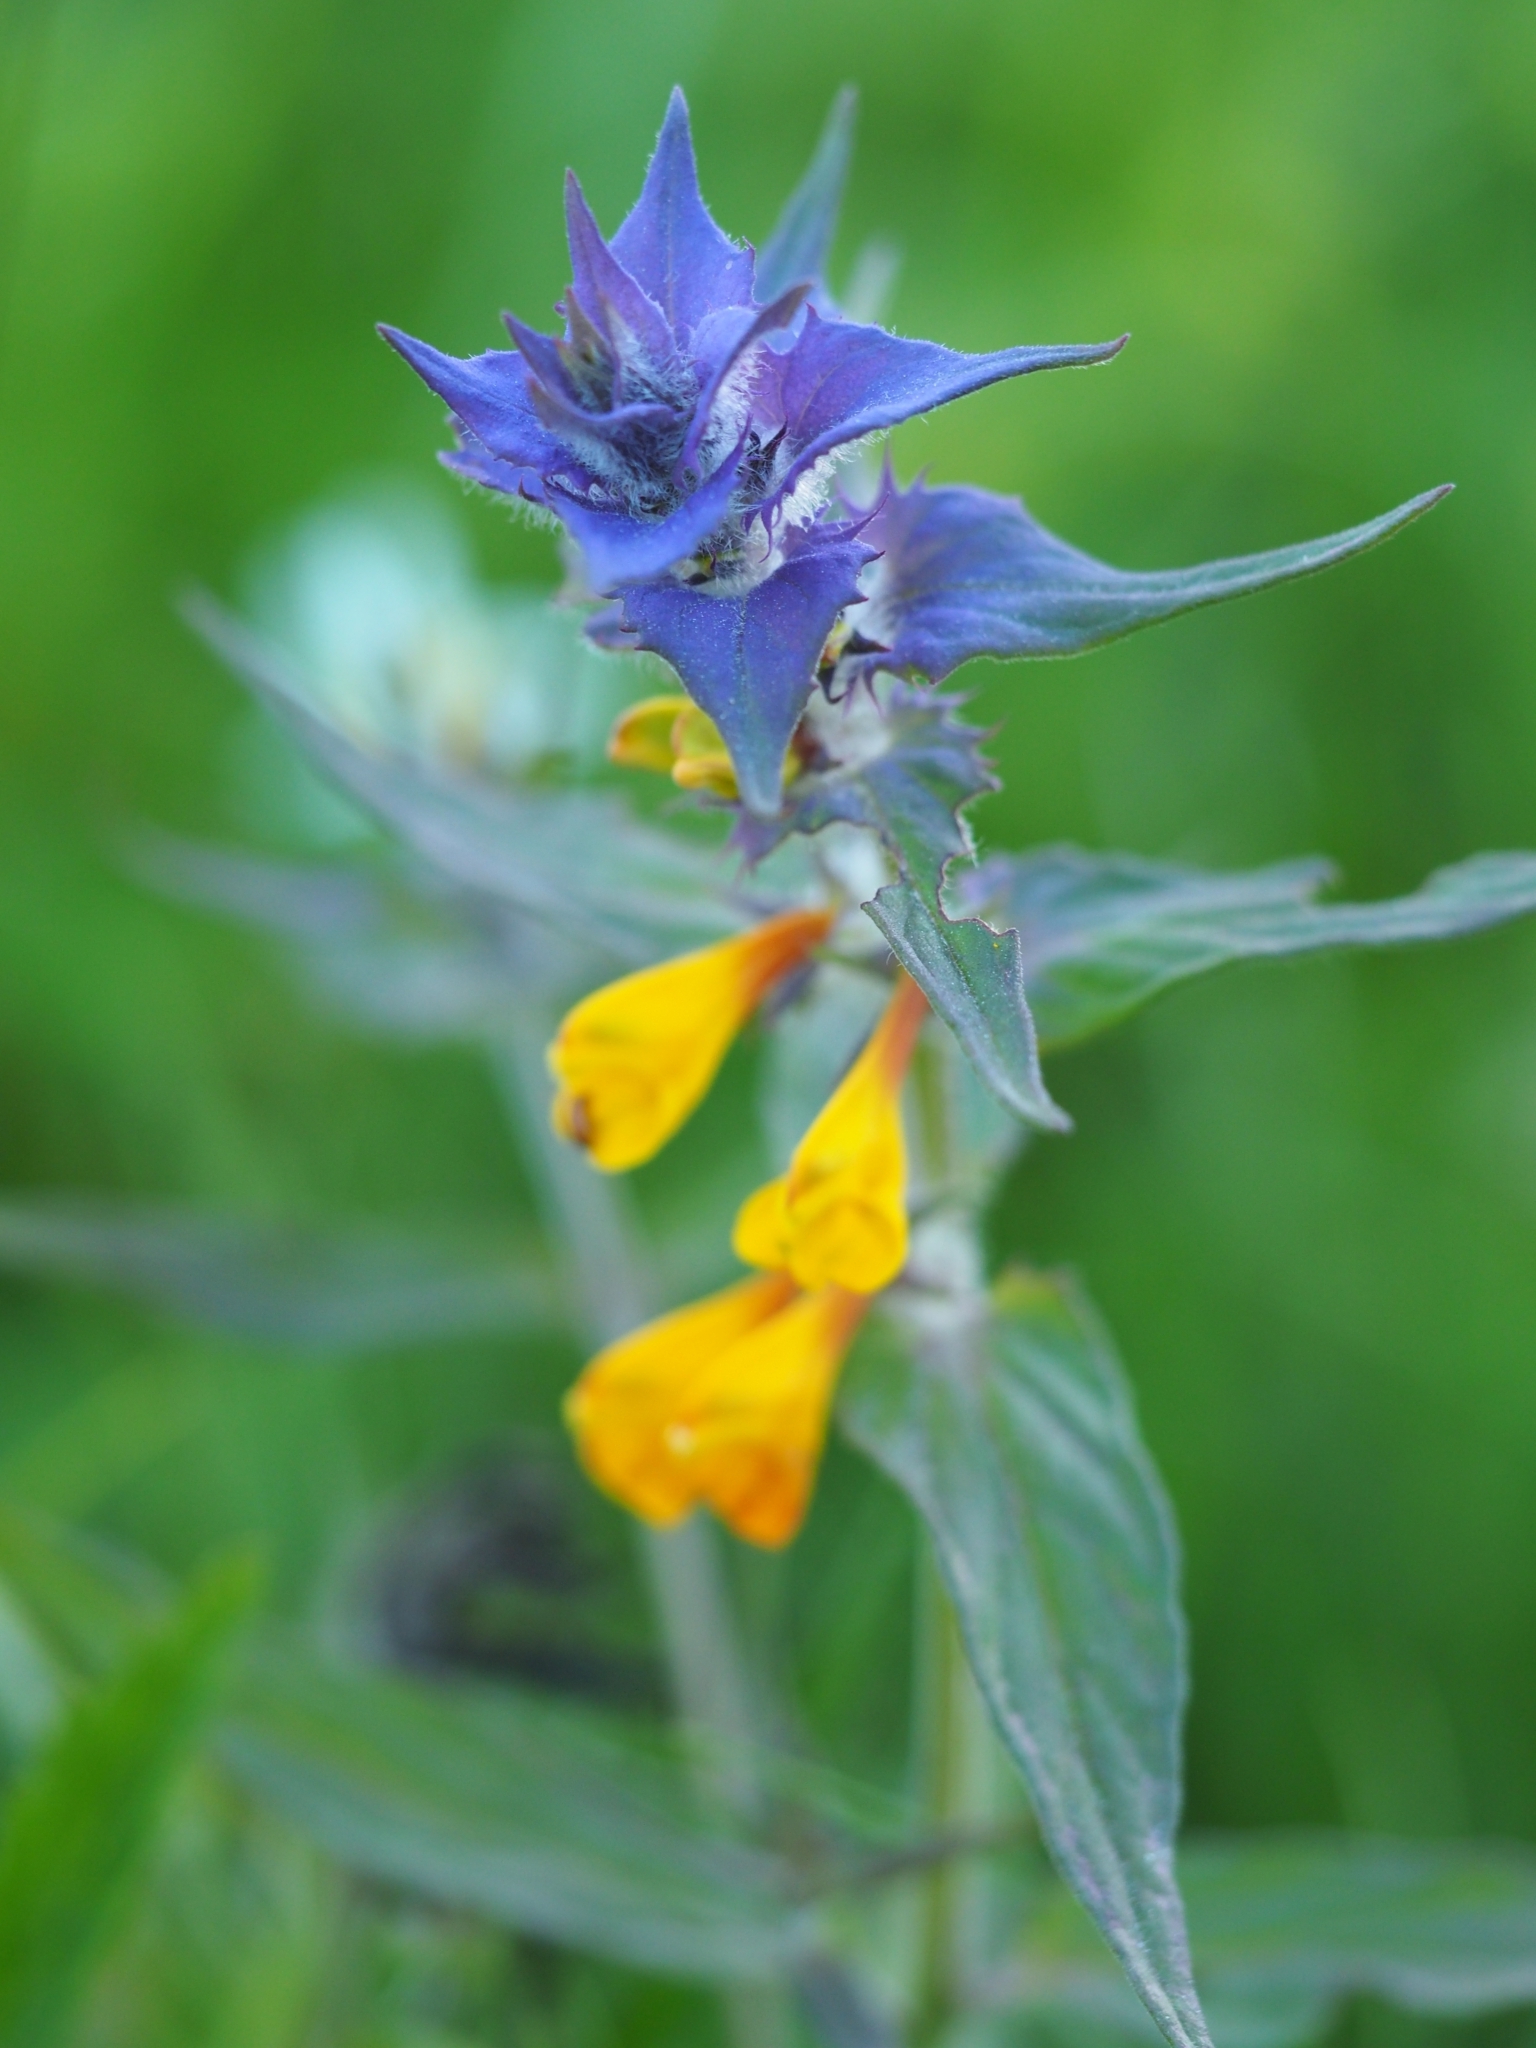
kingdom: Plantae
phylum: Tracheophyta
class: Magnoliopsida
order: Lamiales
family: Orobanchaceae
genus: Melampyrum
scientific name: Melampyrum nemorosum
